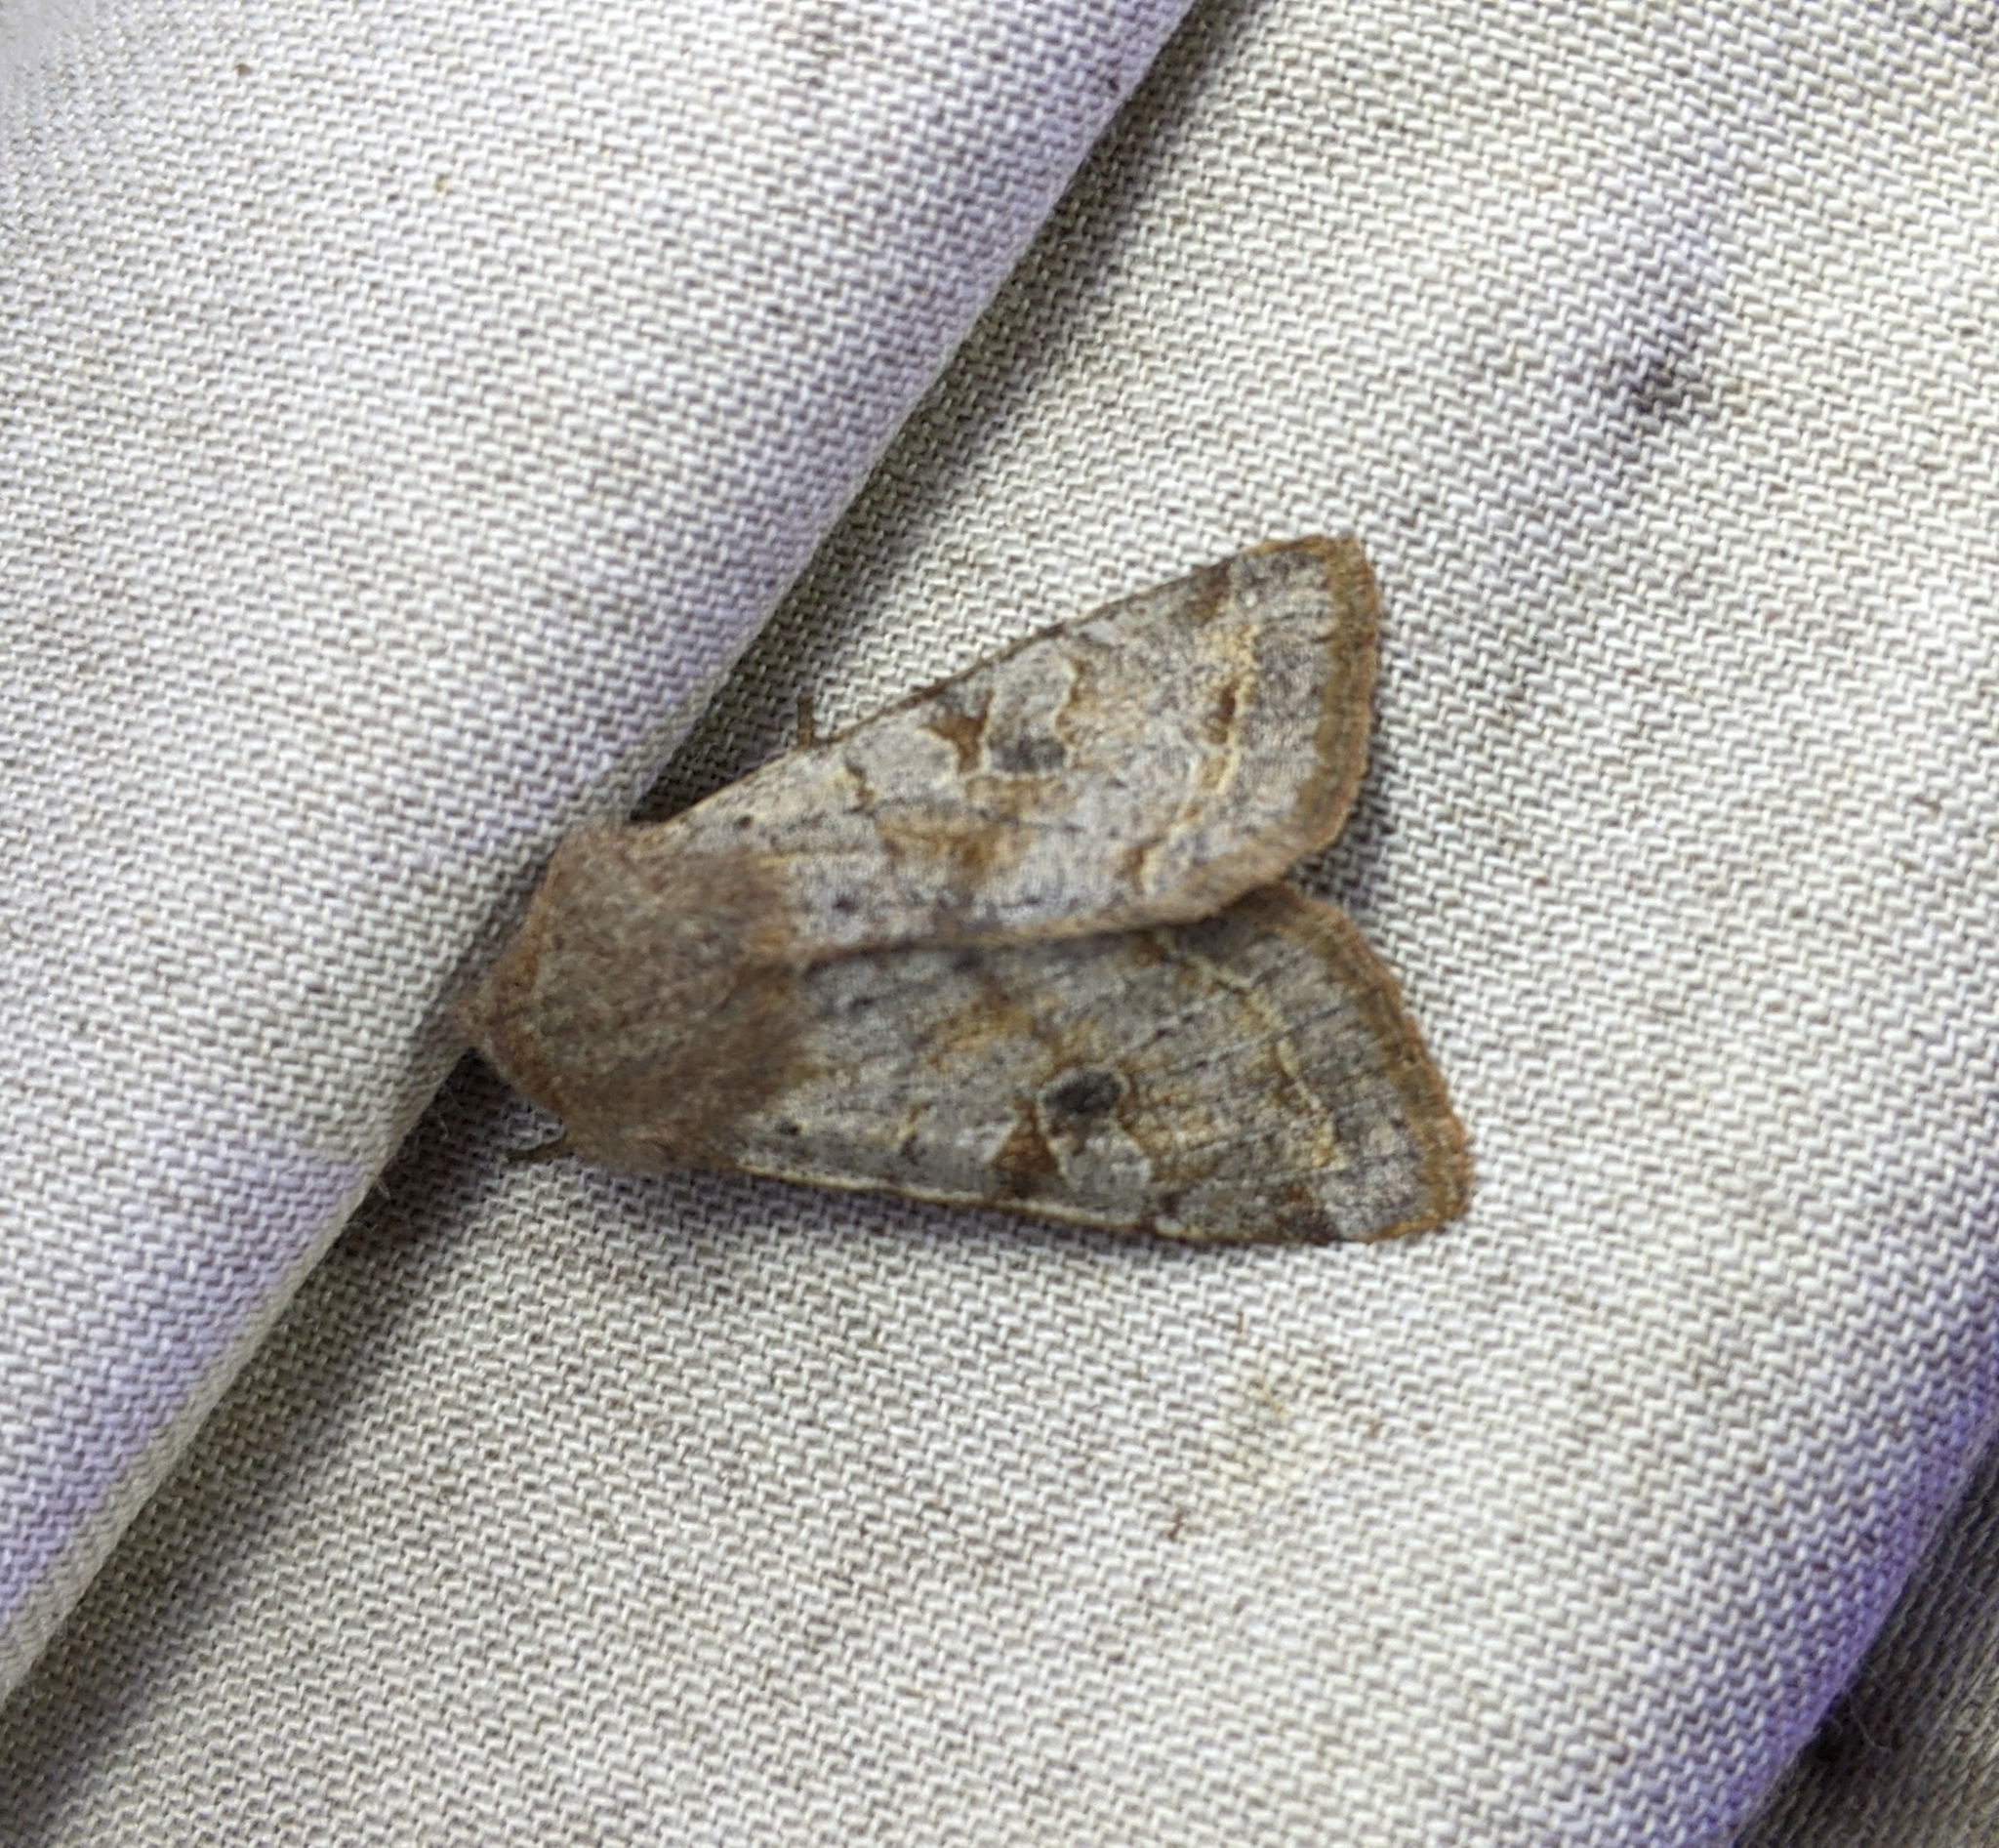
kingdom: Animalia
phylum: Arthropoda
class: Insecta
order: Lepidoptera
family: Noctuidae
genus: Orthosia
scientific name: Orthosia hibisci
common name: Green fruitworm
